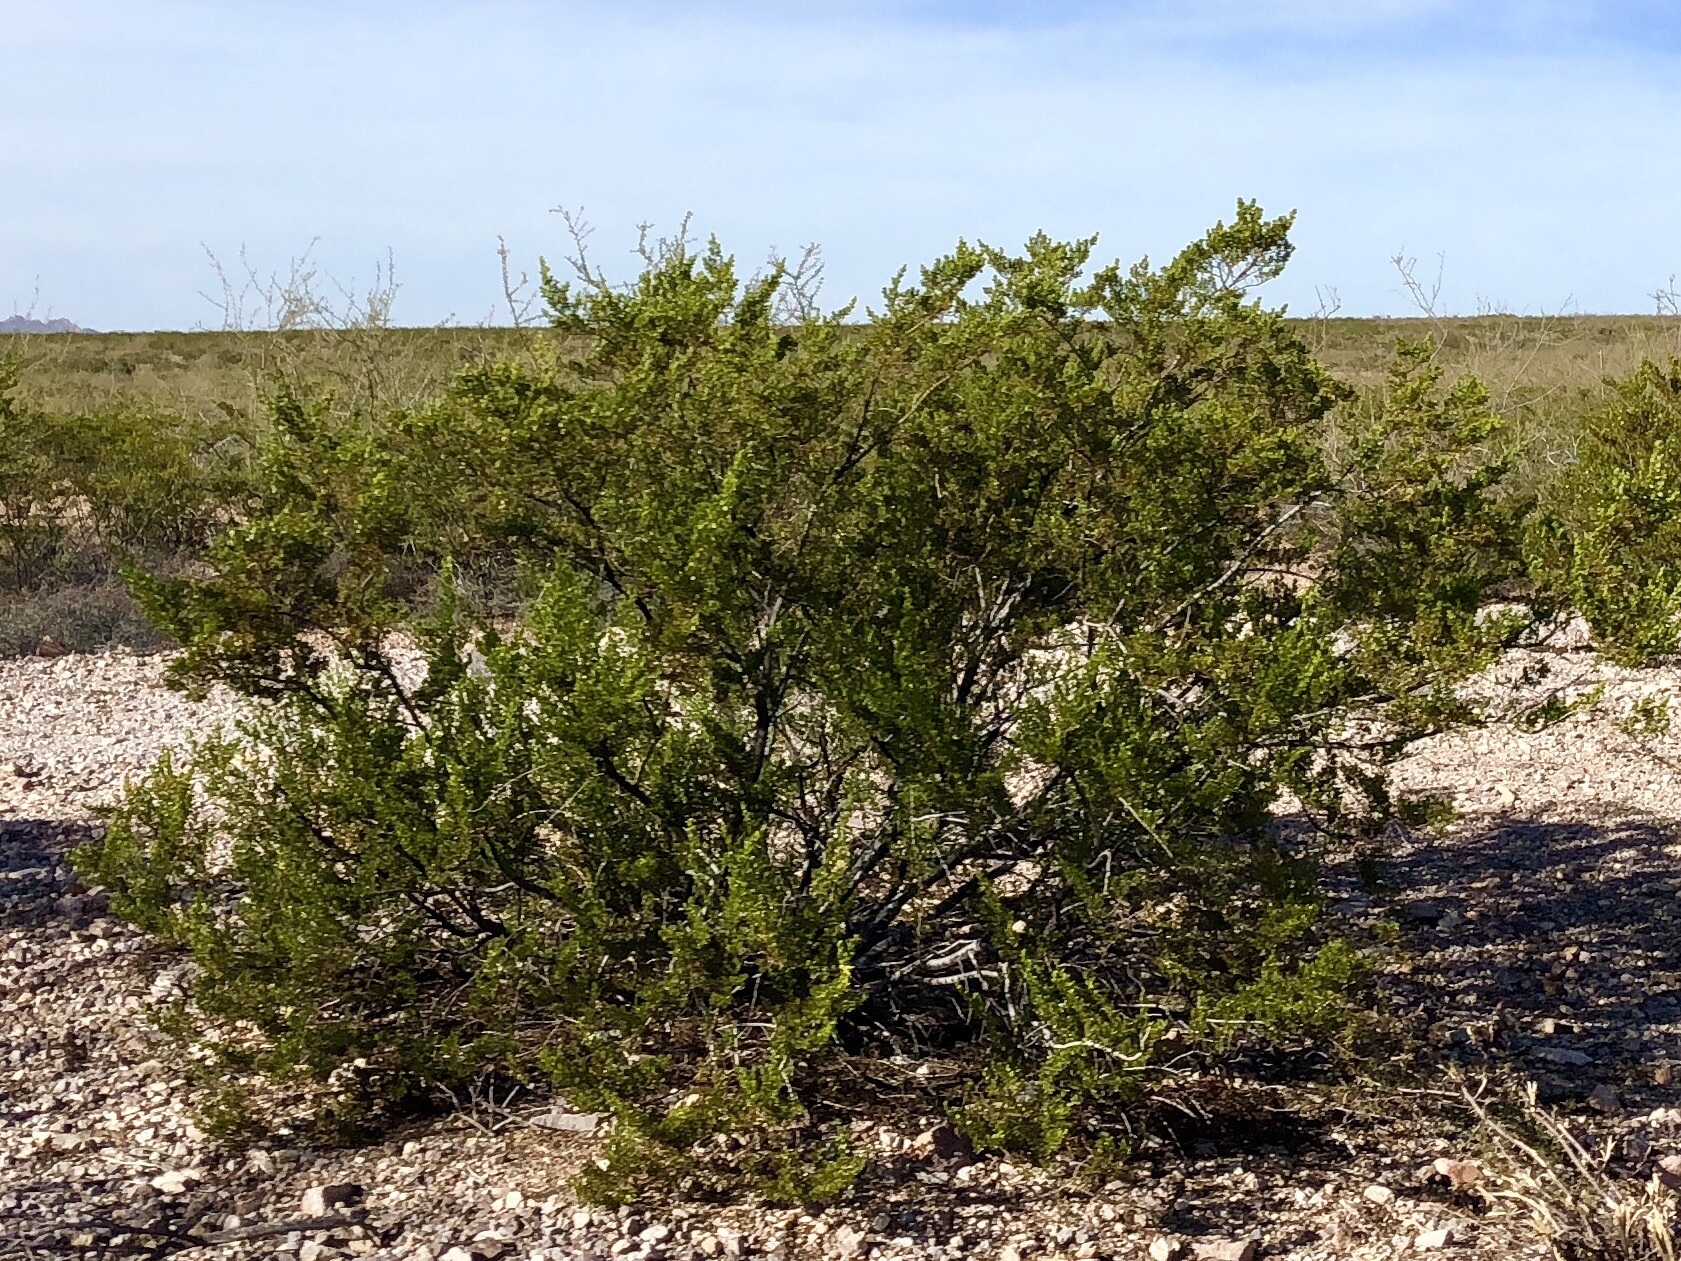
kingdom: Plantae
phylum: Tracheophyta
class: Magnoliopsida
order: Zygophyllales
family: Zygophyllaceae
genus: Larrea
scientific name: Larrea tridentata
